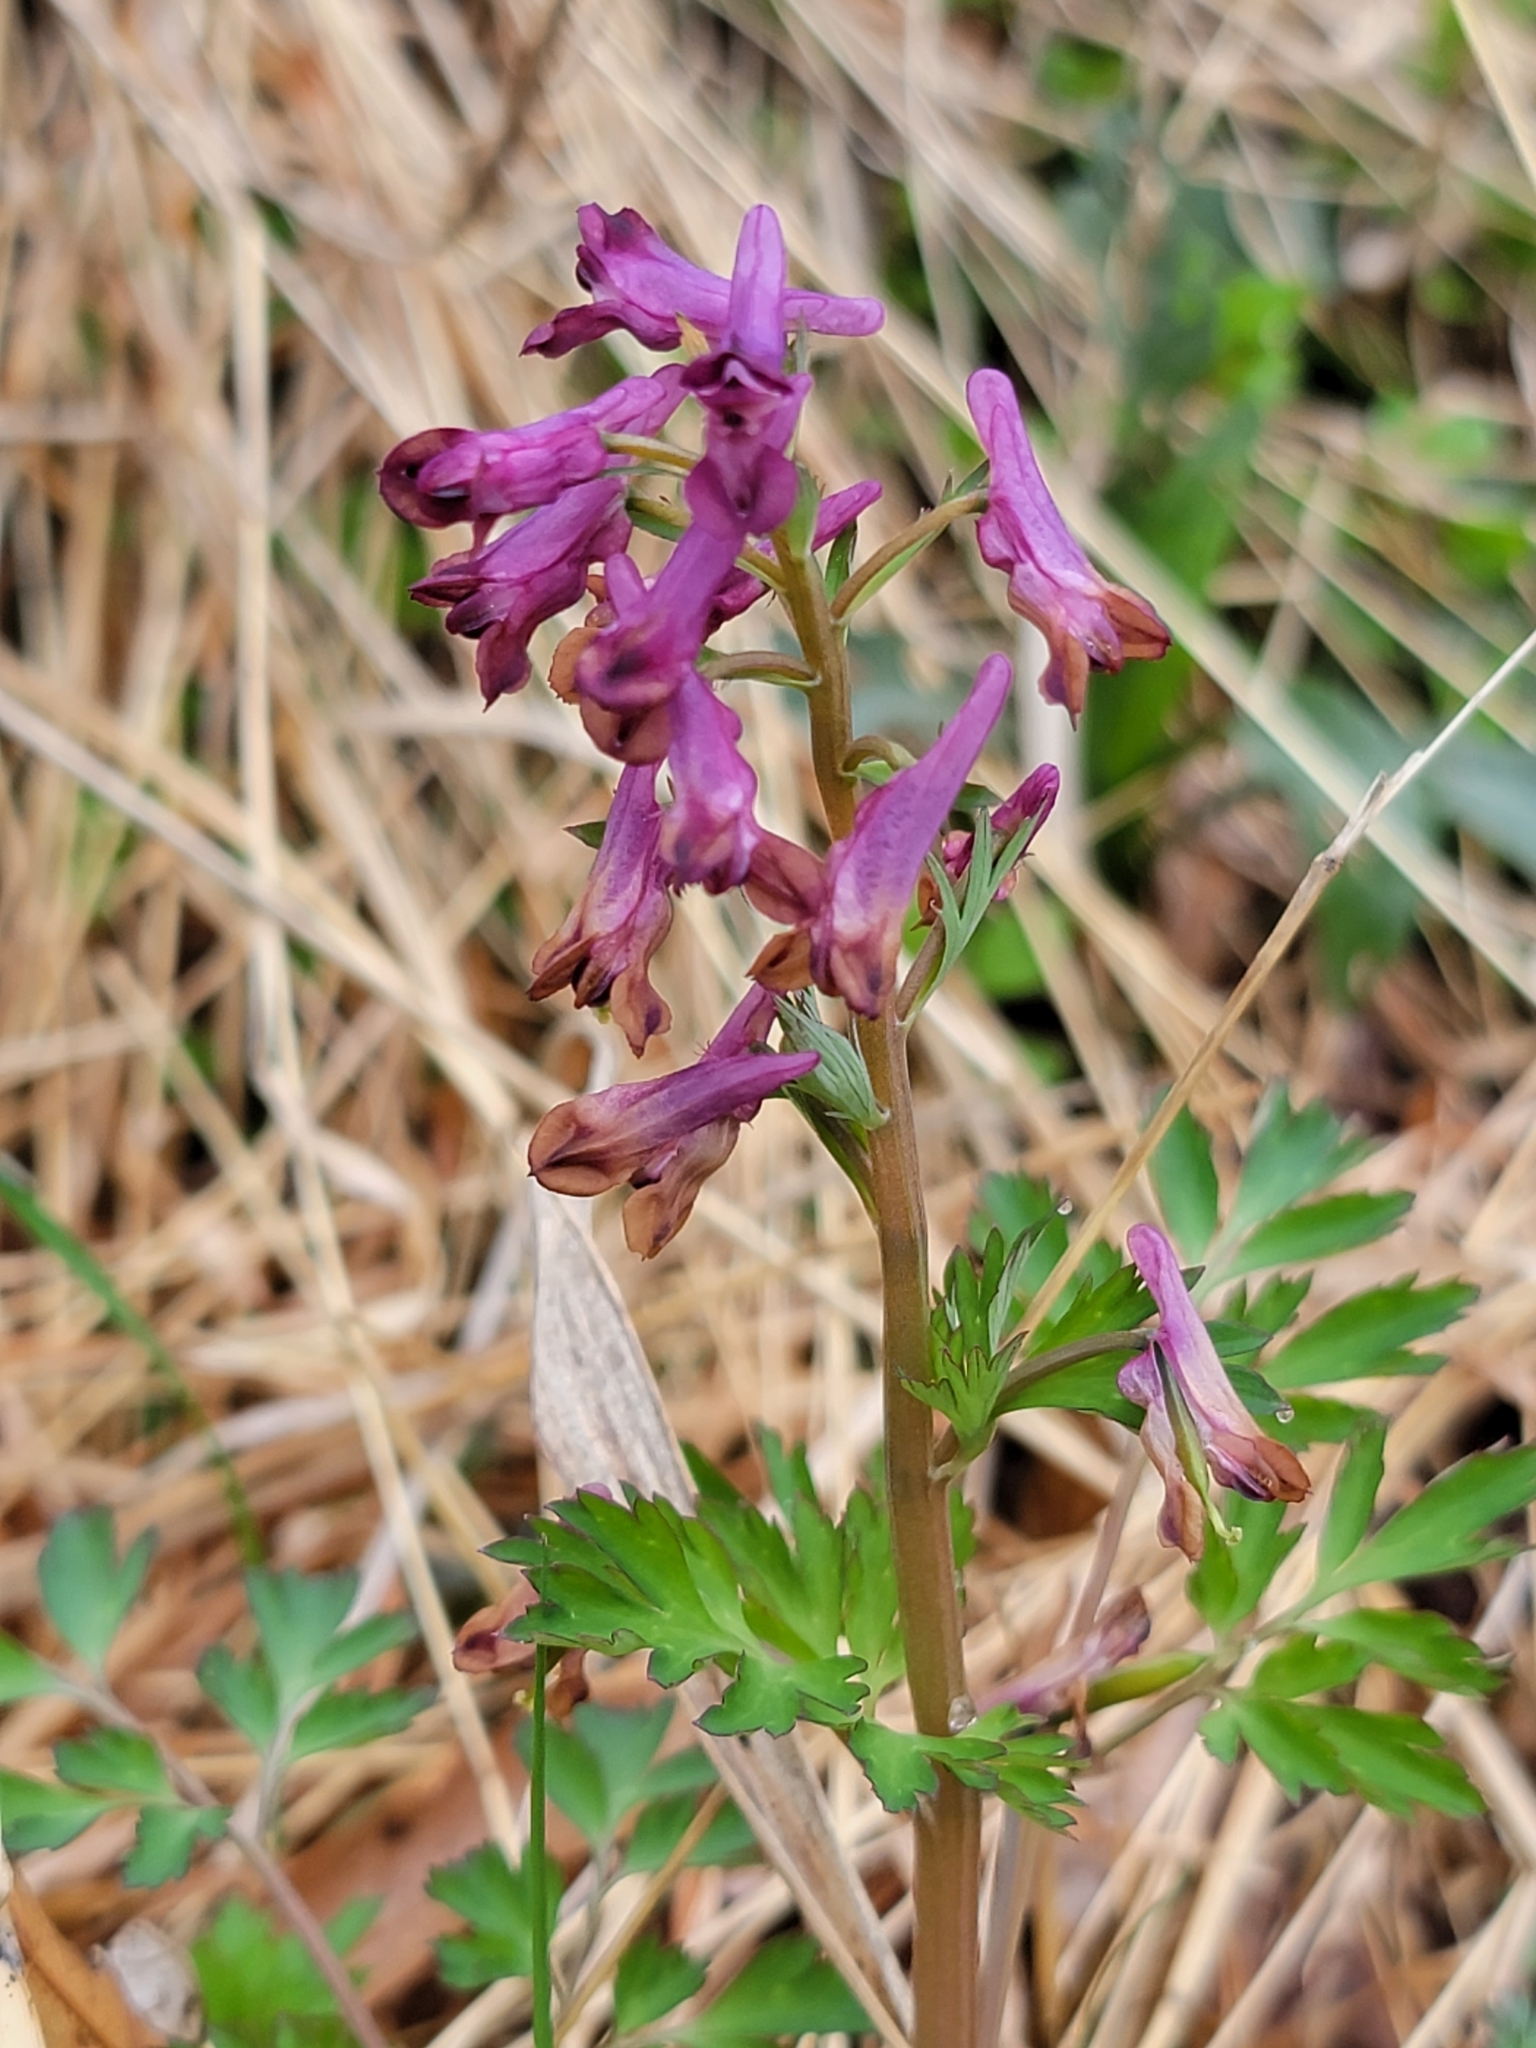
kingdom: Plantae
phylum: Tracheophyta
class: Magnoliopsida
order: Ranunculales
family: Papaveraceae
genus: Corydalis
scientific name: Corydalis incisa
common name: Incised fumewort
